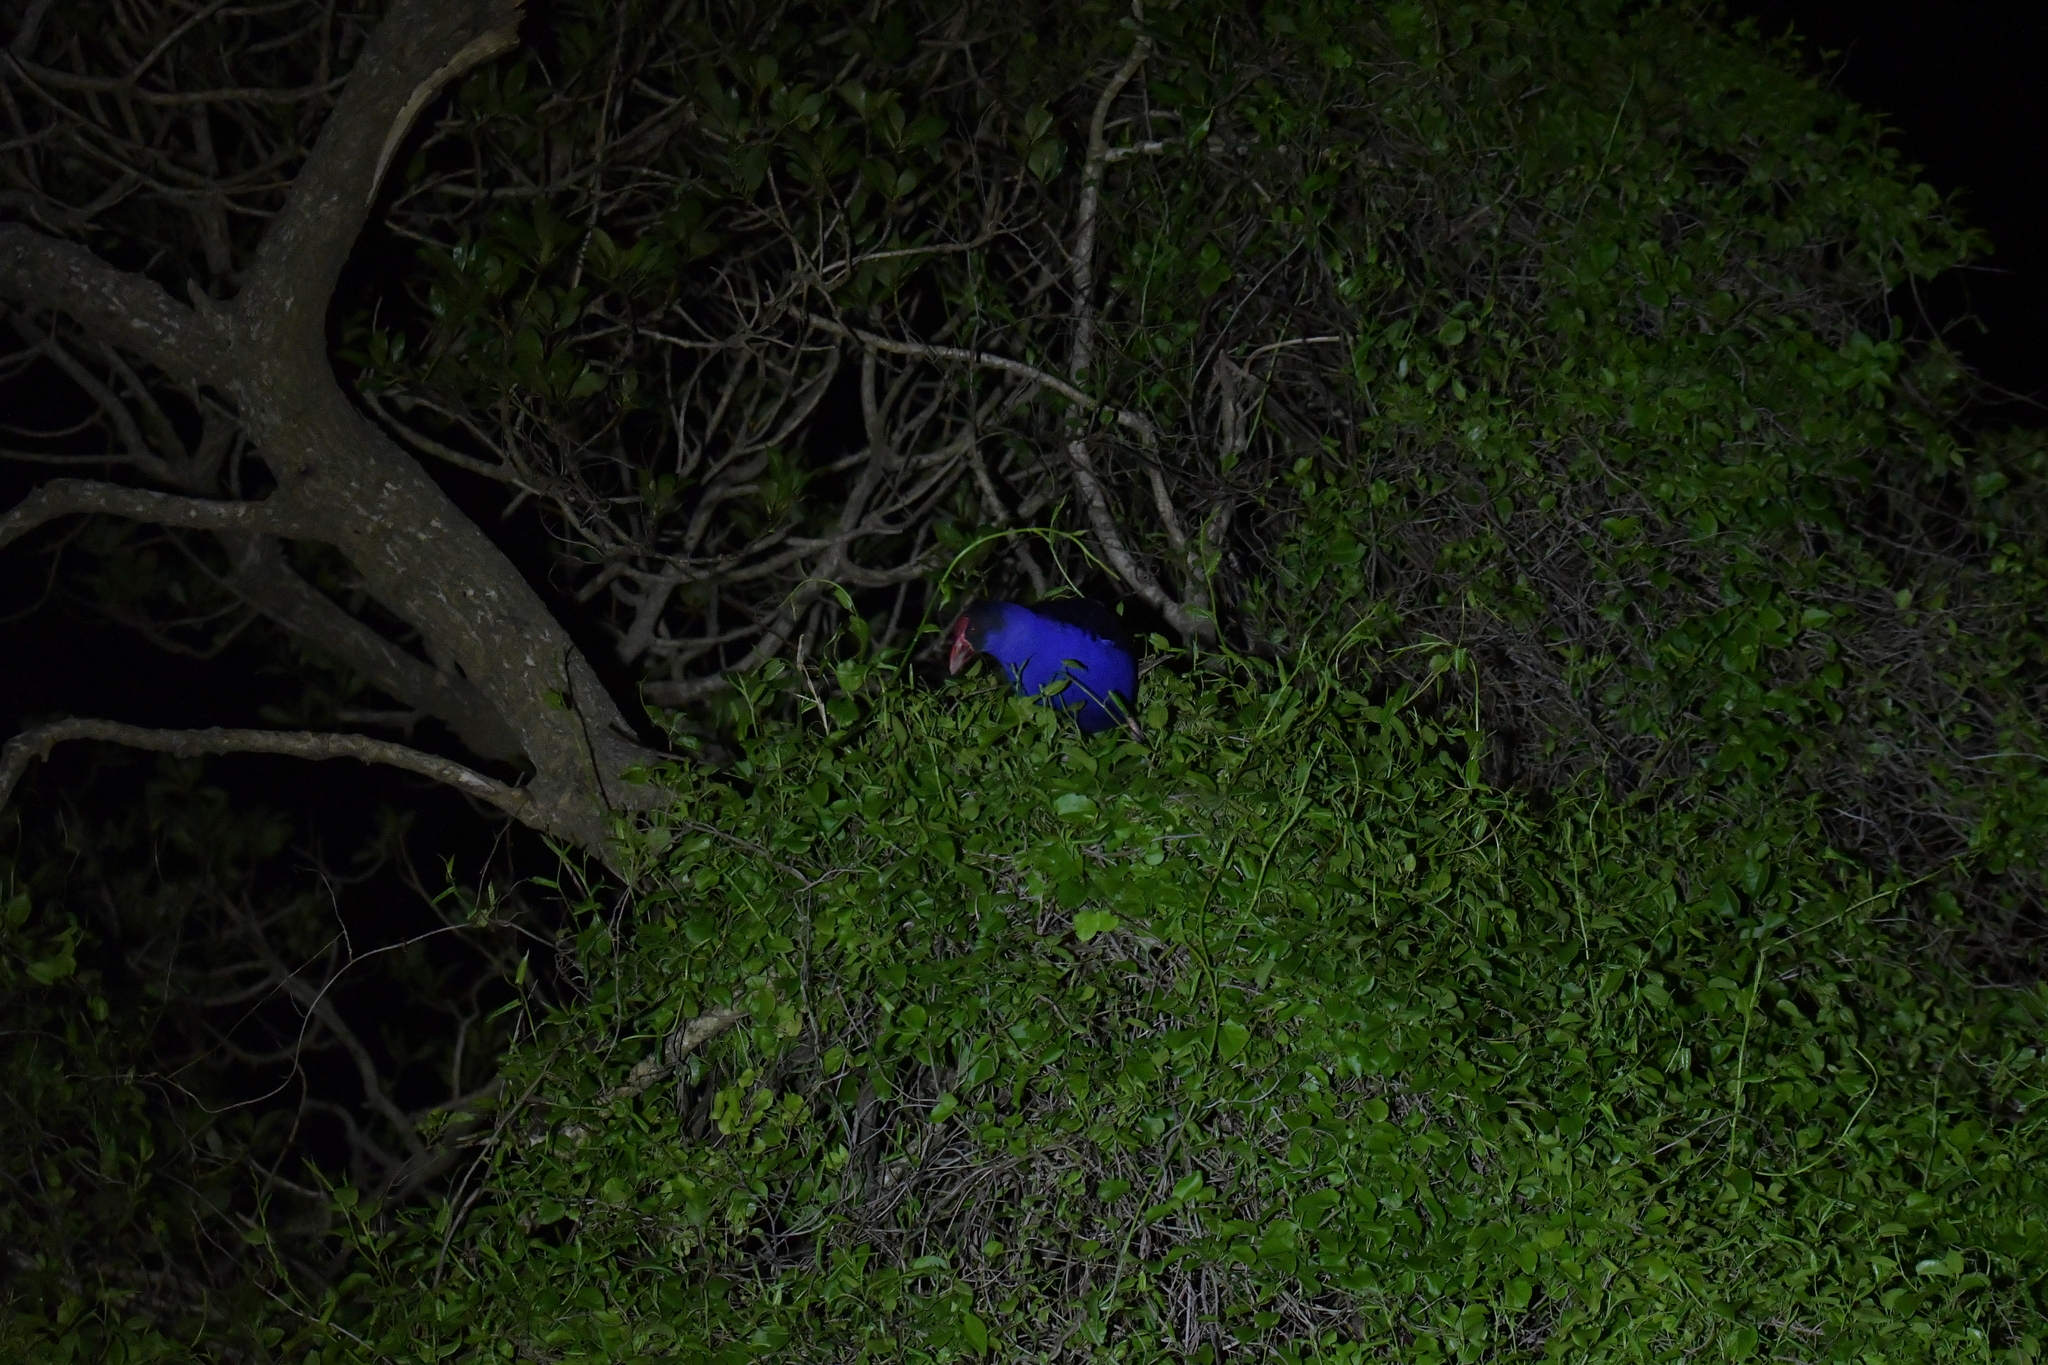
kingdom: Animalia
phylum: Chordata
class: Aves
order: Gruiformes
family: Rallidae
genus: Porphyrio
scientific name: Porphyrio melanotus
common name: Australasian swamphen
